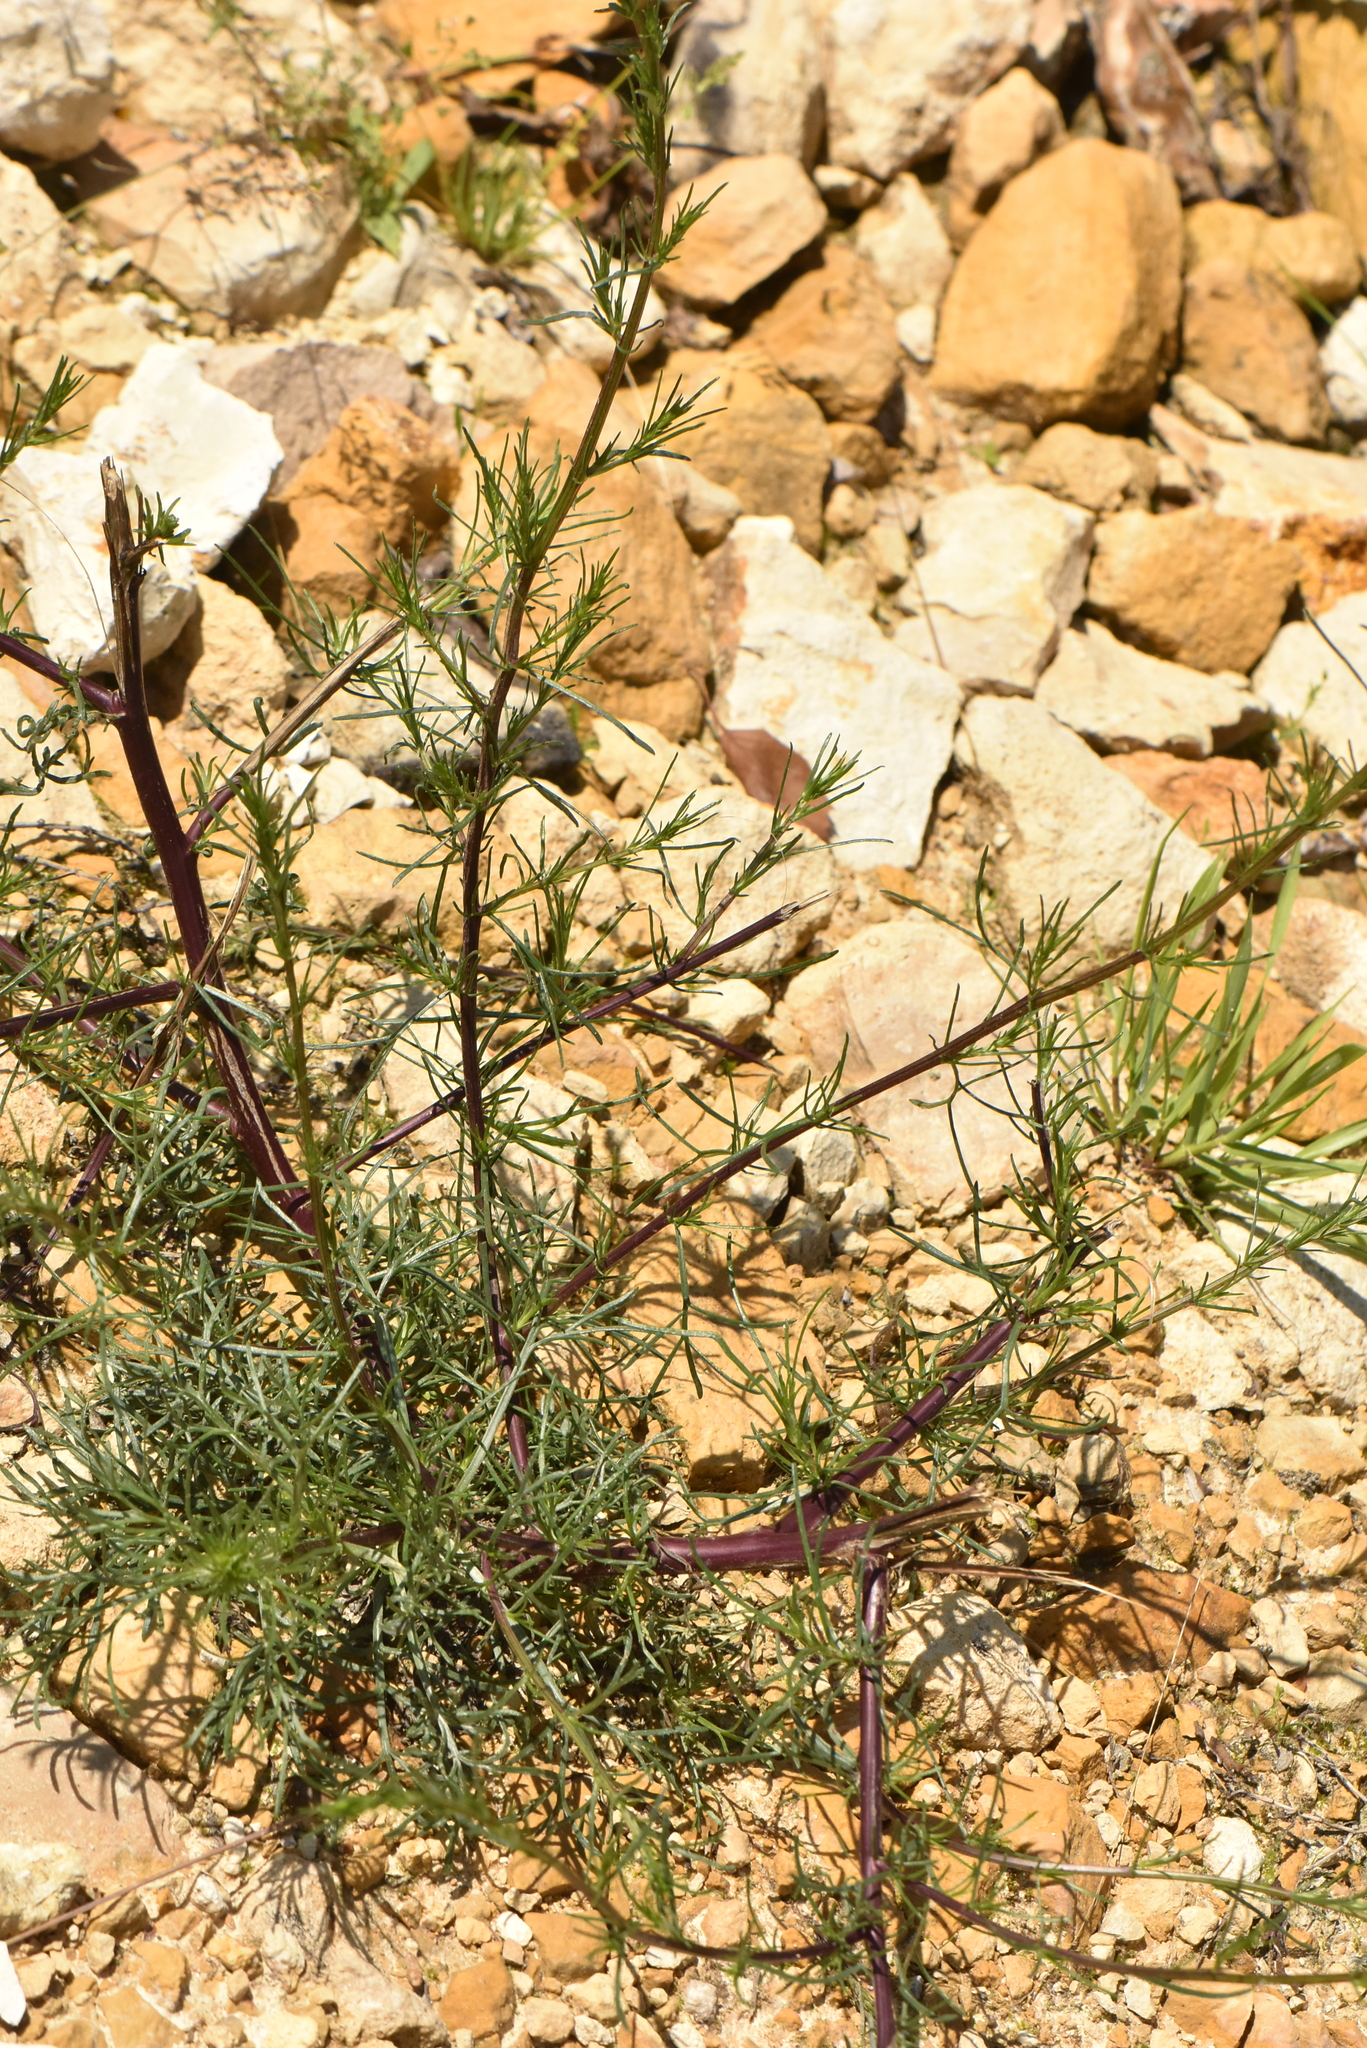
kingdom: Plantae
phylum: Tracheophyta
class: Magnoliopsida
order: Asterales
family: Asteraceae
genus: Artemisia
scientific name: Artemisia campestris
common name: Field wormwood
